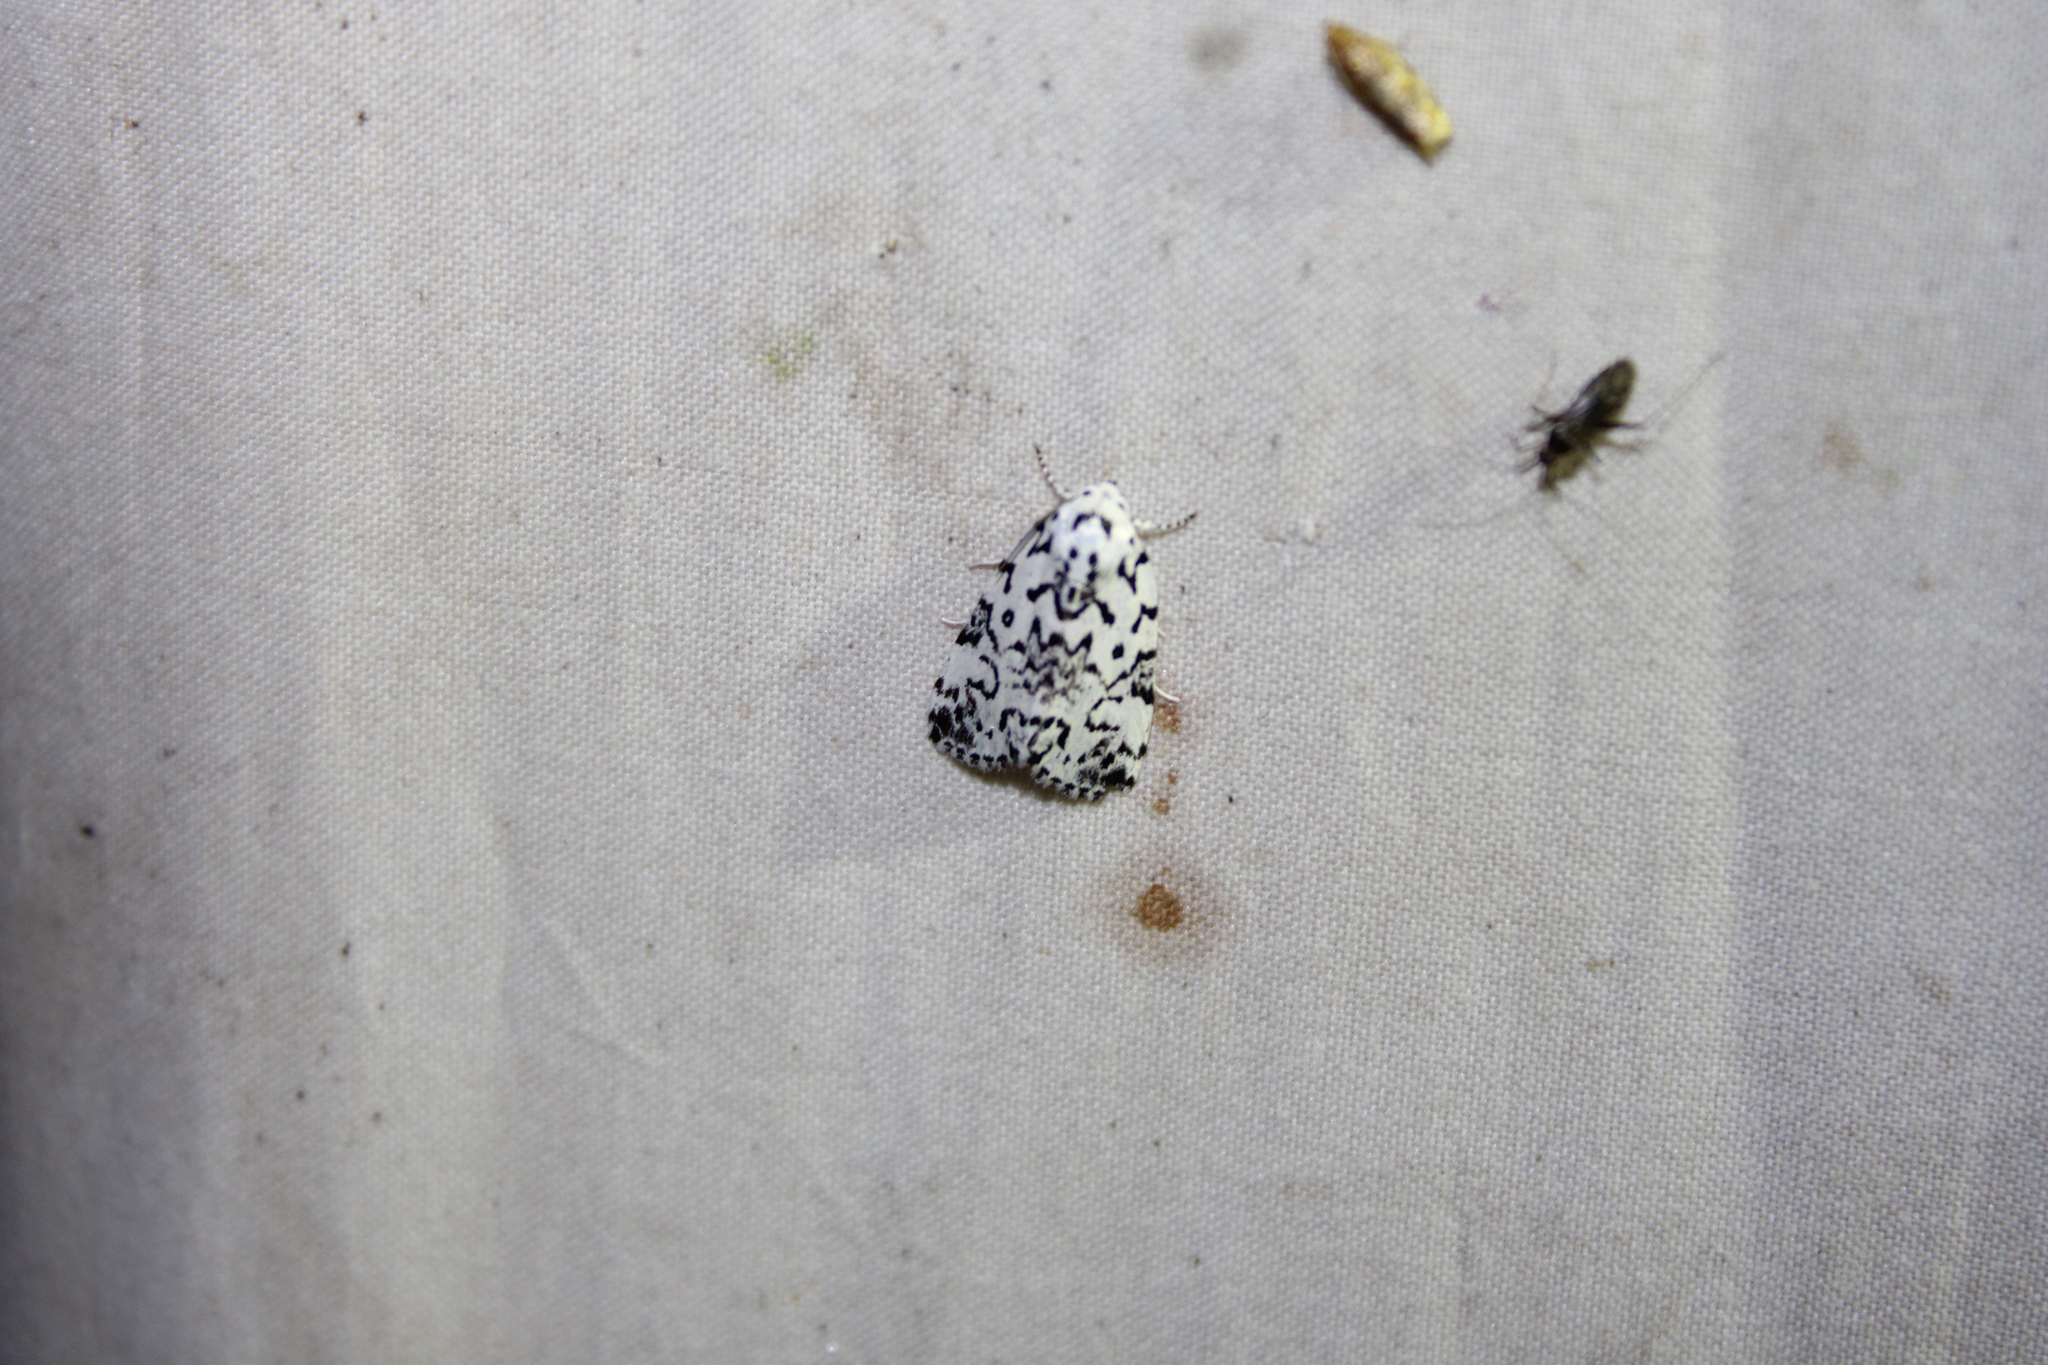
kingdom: Animalia
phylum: Arthropoda
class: Insecta
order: Lepidoptera
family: Noctuidae
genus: Polygrammate
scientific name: Polygrammate hebraeicum
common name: Hebrew moth
